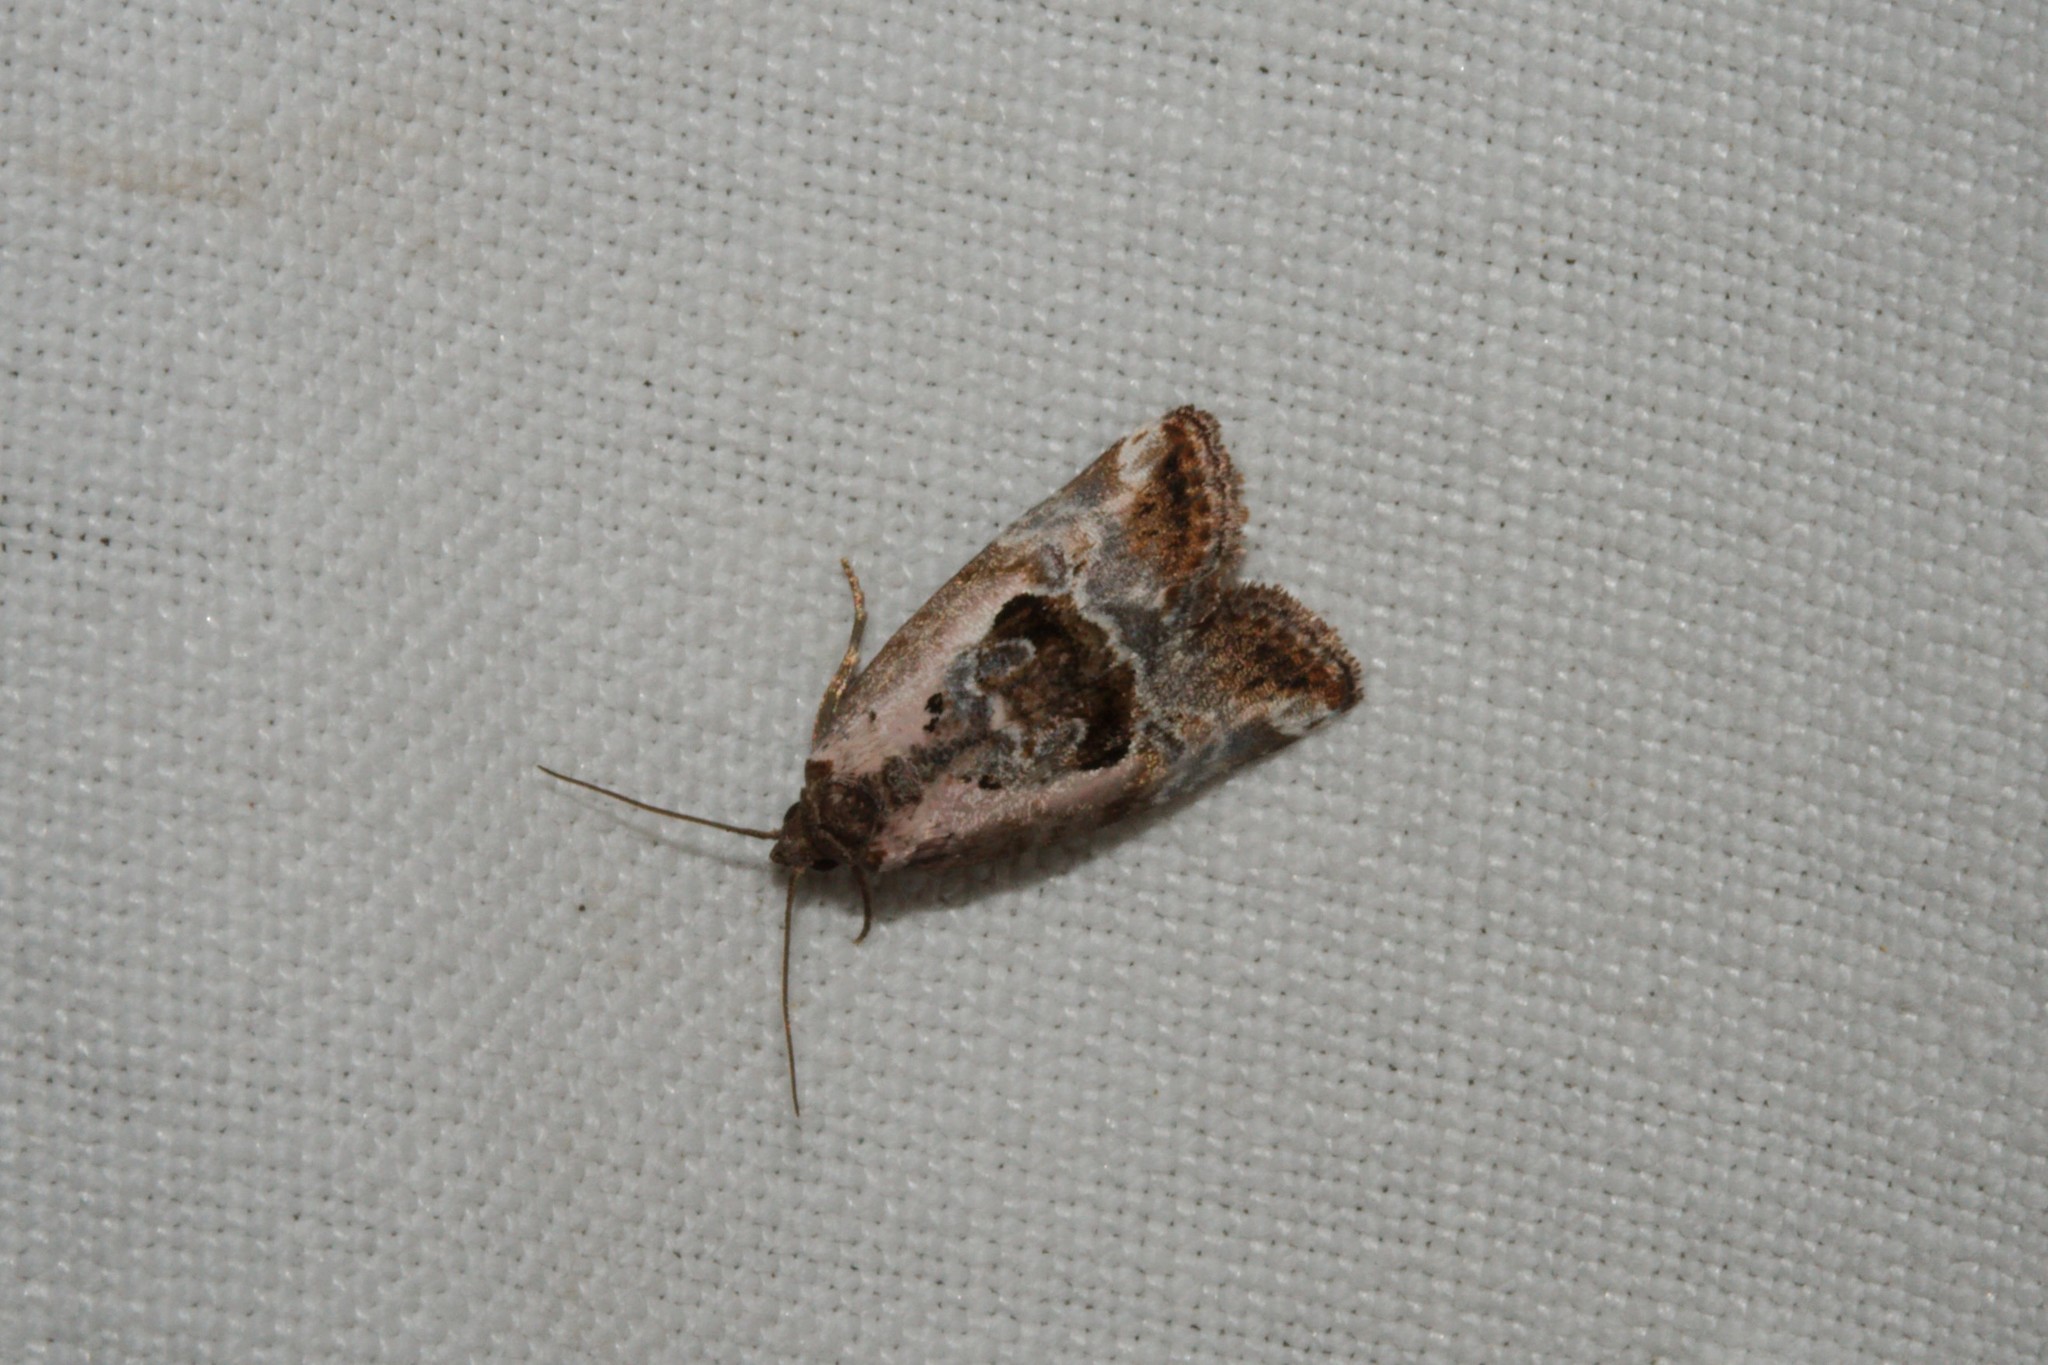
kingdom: Animalia
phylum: Arthropoda
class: Insecta
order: Lepidoptera
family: Noctuidae
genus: Elaphria
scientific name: Elaphria venustula
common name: Rosy marbled
